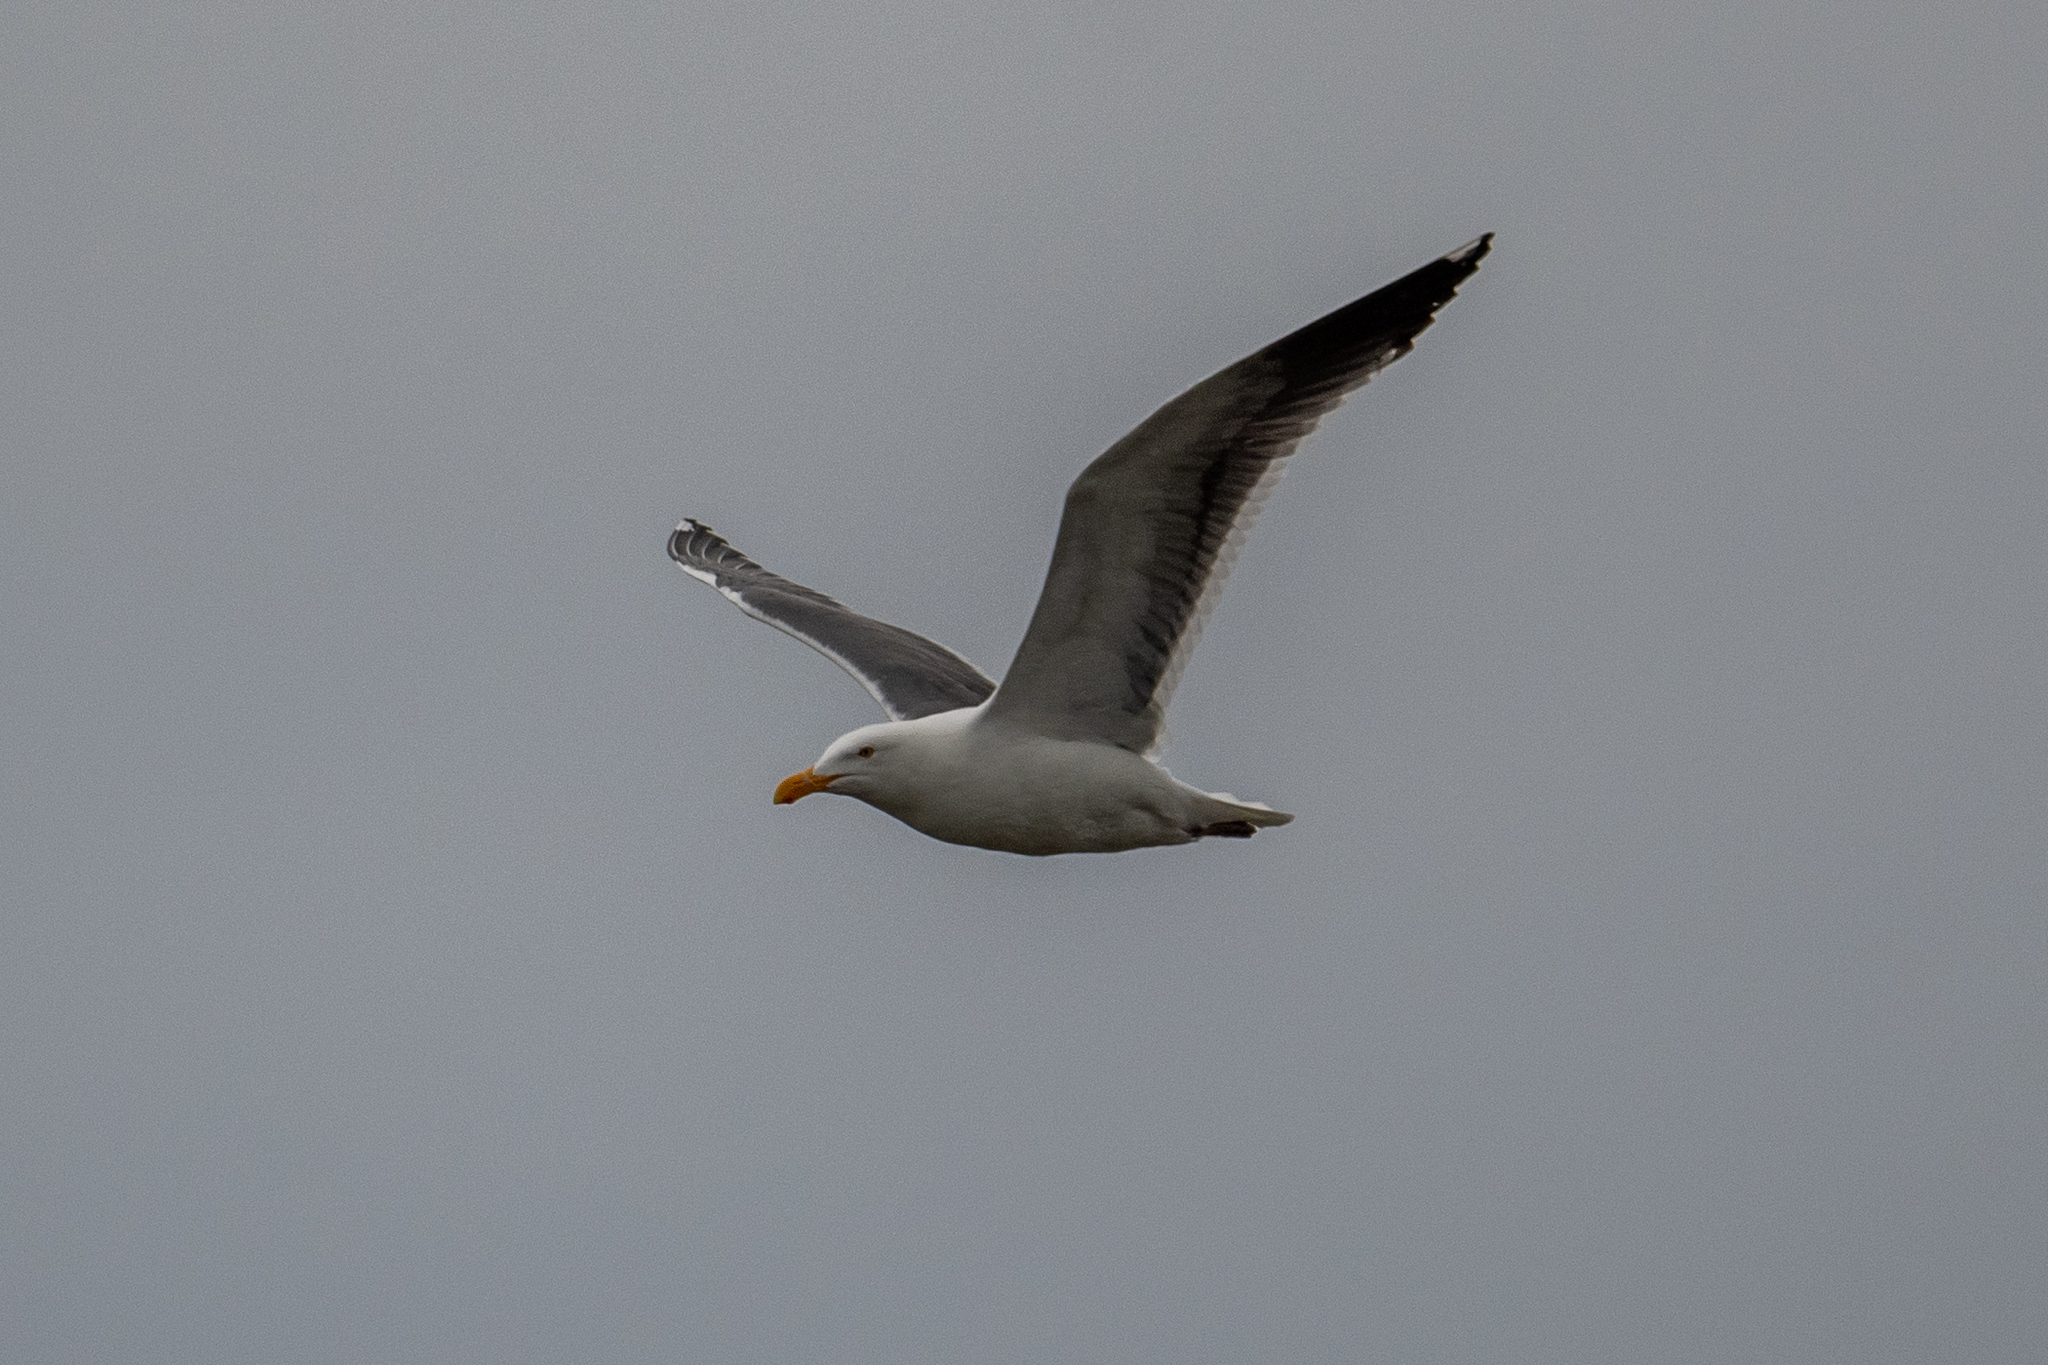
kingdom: Animalia
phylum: Chordata
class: Aves
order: Charadriiformes
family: Laridae
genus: Larus
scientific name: Larus occidentalis
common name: Western gull
